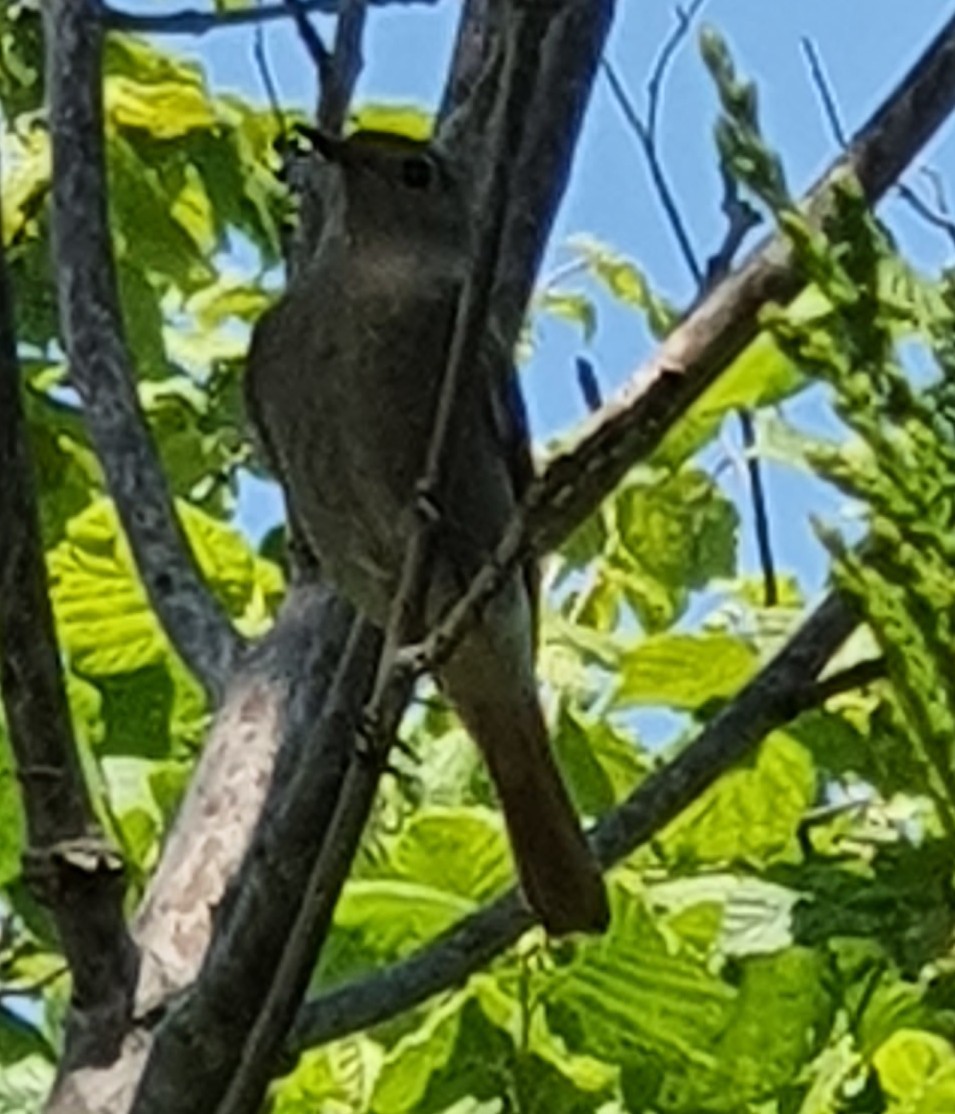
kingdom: Animalia
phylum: Chordata
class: Aves
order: Passeriformes
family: Muscicapidae
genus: Phoenicurus
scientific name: Phoenicurus ochruros
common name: Black redstart
